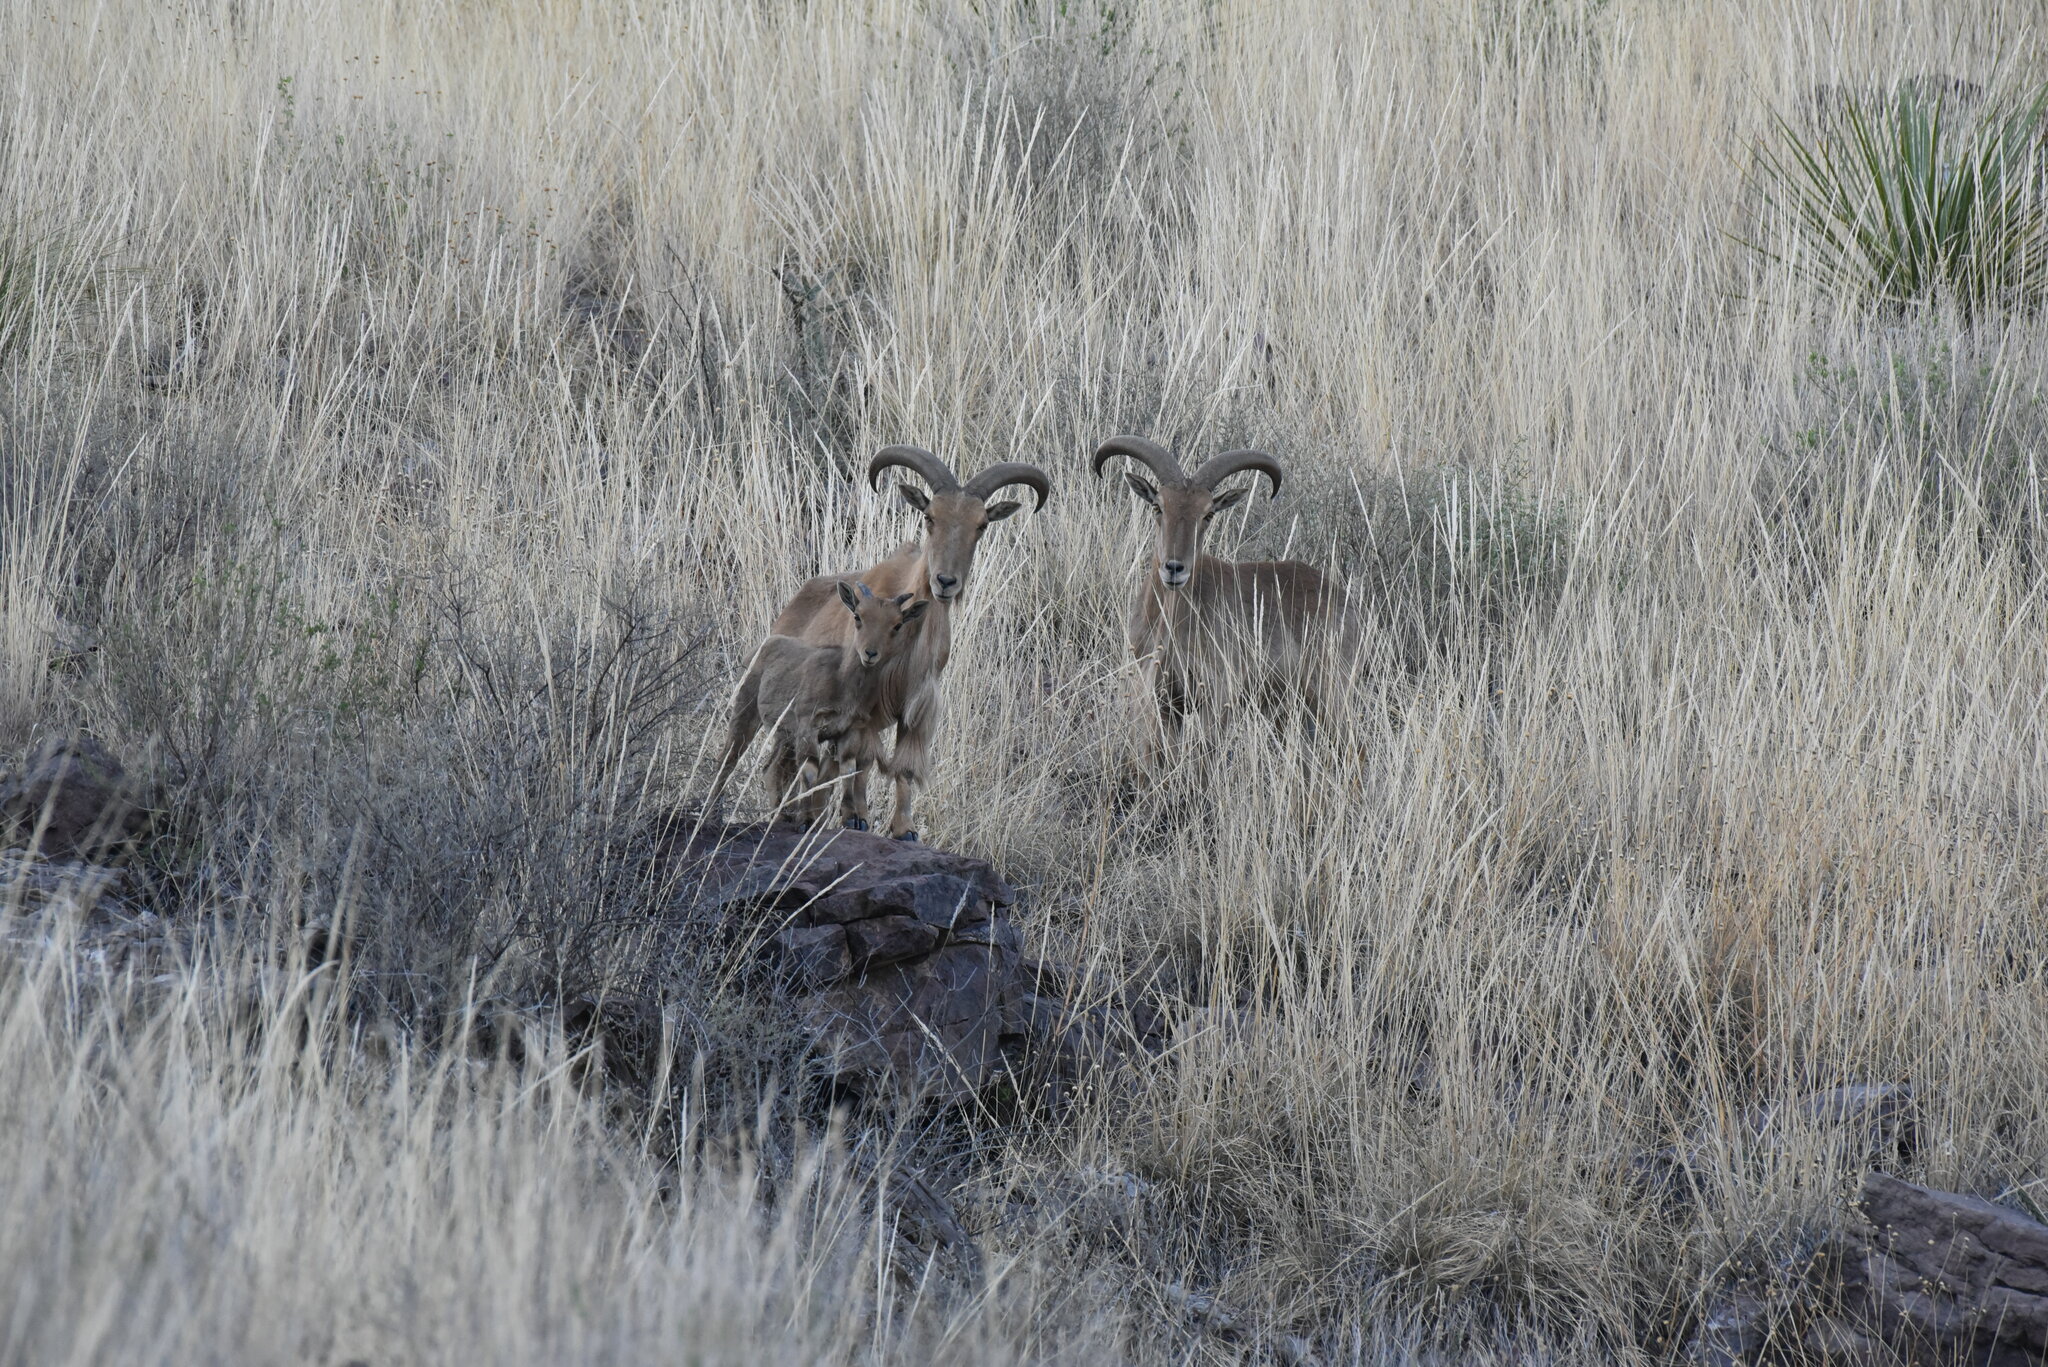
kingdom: Animalia
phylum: Chordata
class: Mammalia
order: Artiodactyla
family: Bovidae
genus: Ammotragus
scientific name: Ammotragus lervia
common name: Barbary sheep
